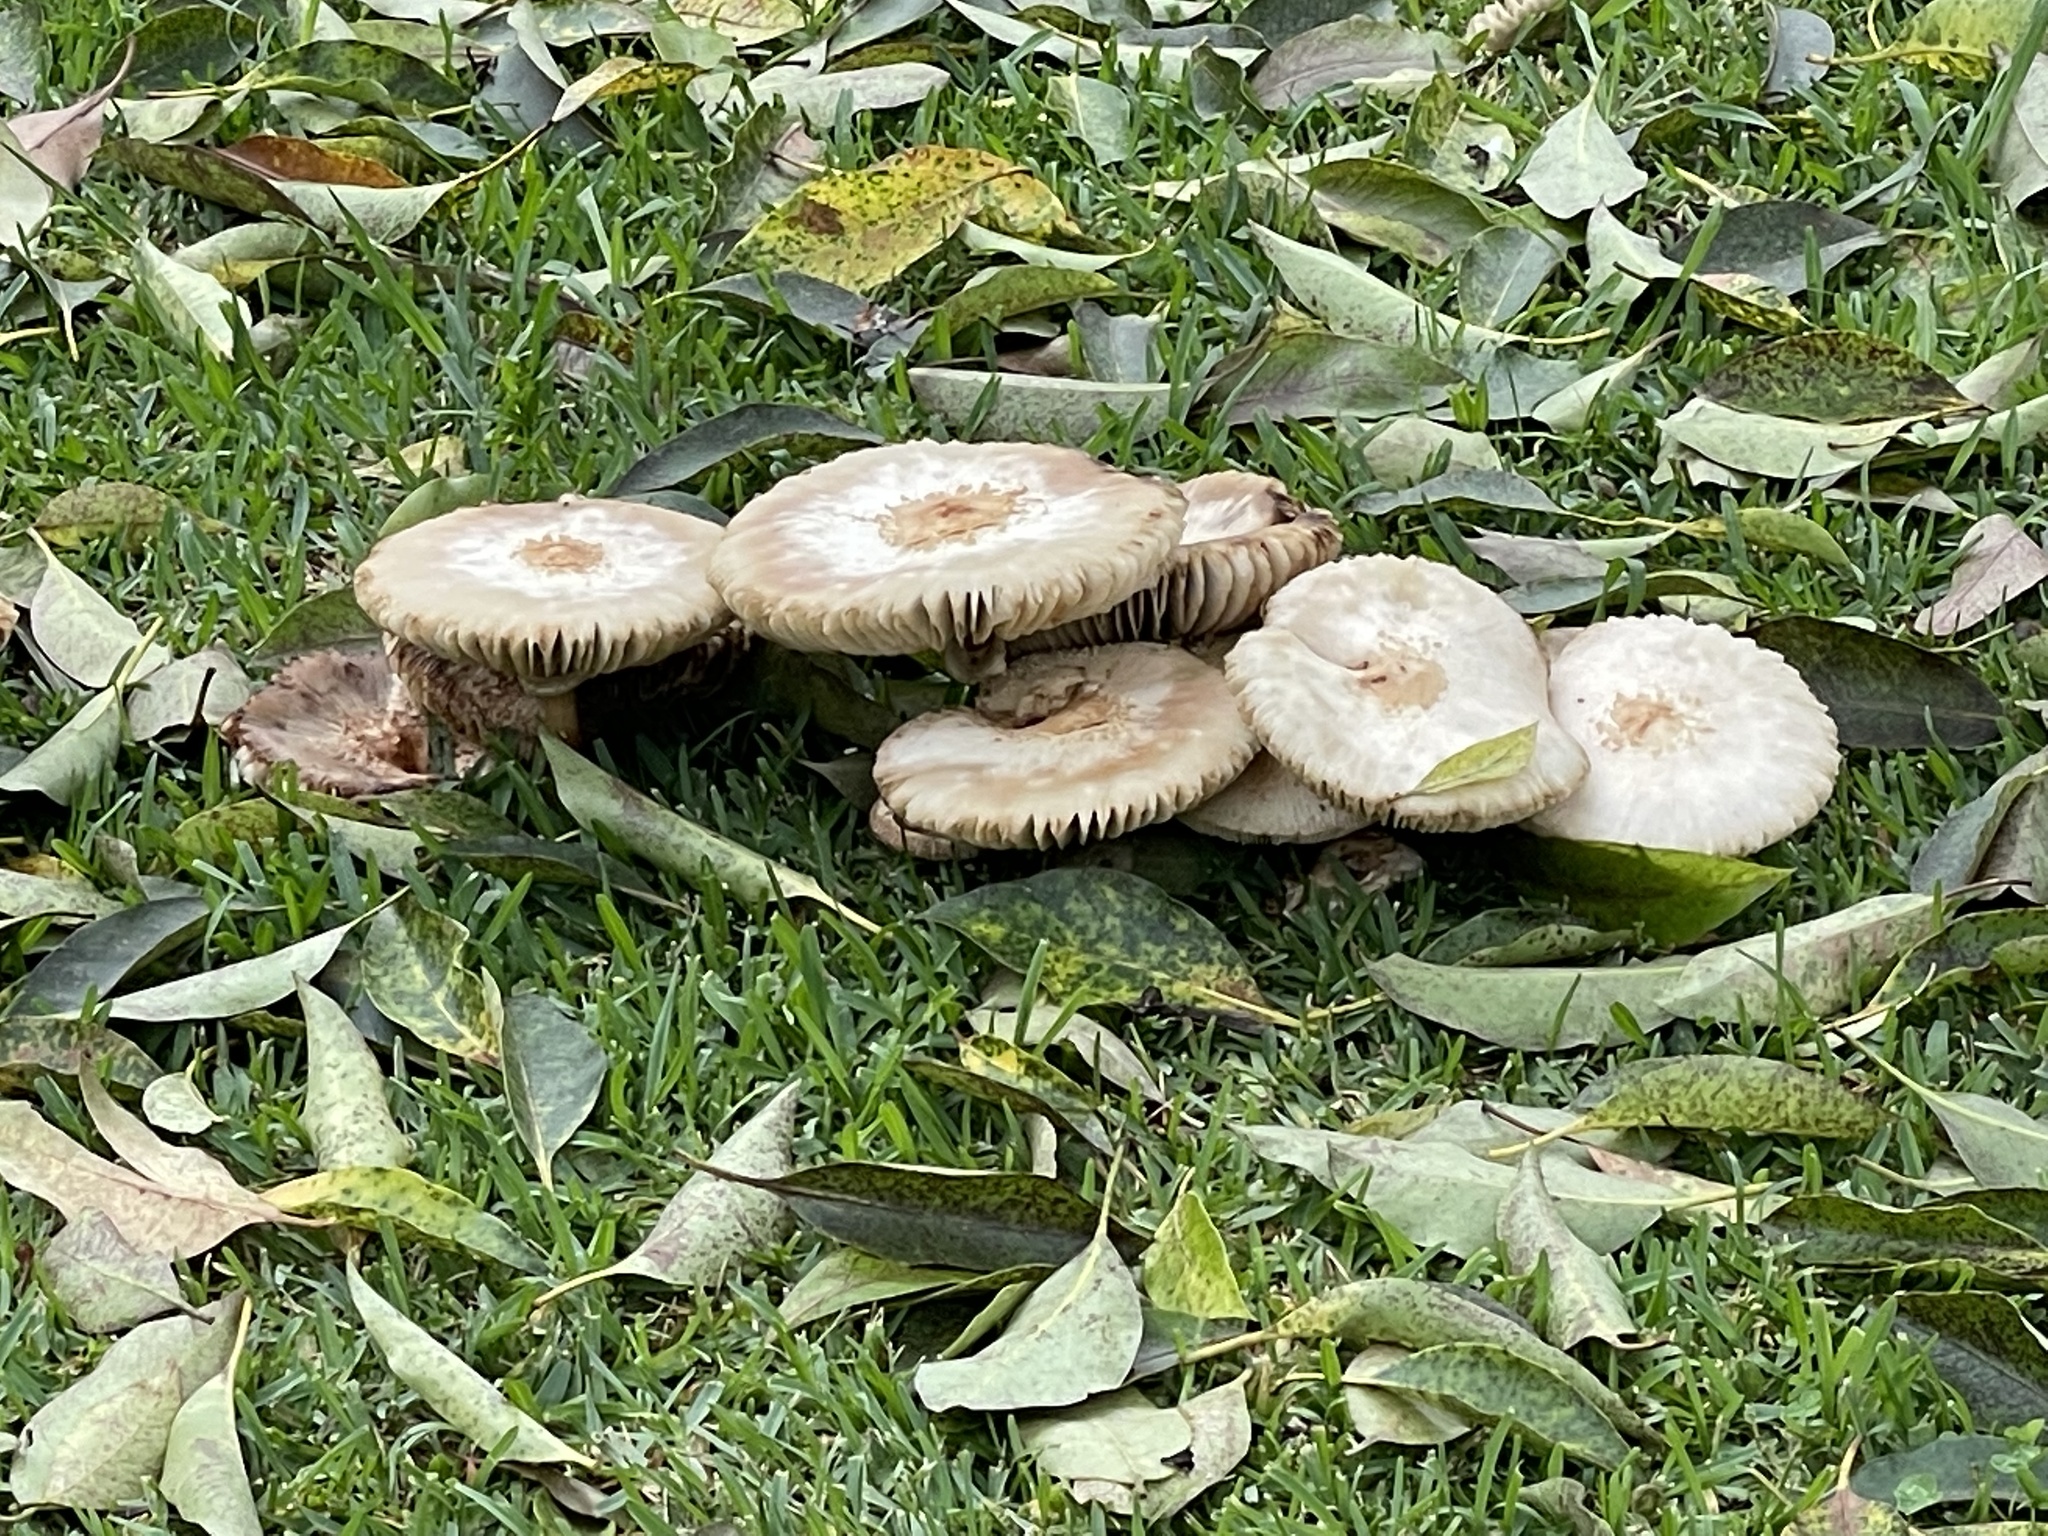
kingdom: Fungi
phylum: Basidiomycota
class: Agaricomycetes
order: Agaricales
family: Agaricaceae
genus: Chlorophyllum
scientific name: Chlorophyllum molybdites
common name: False parasol
